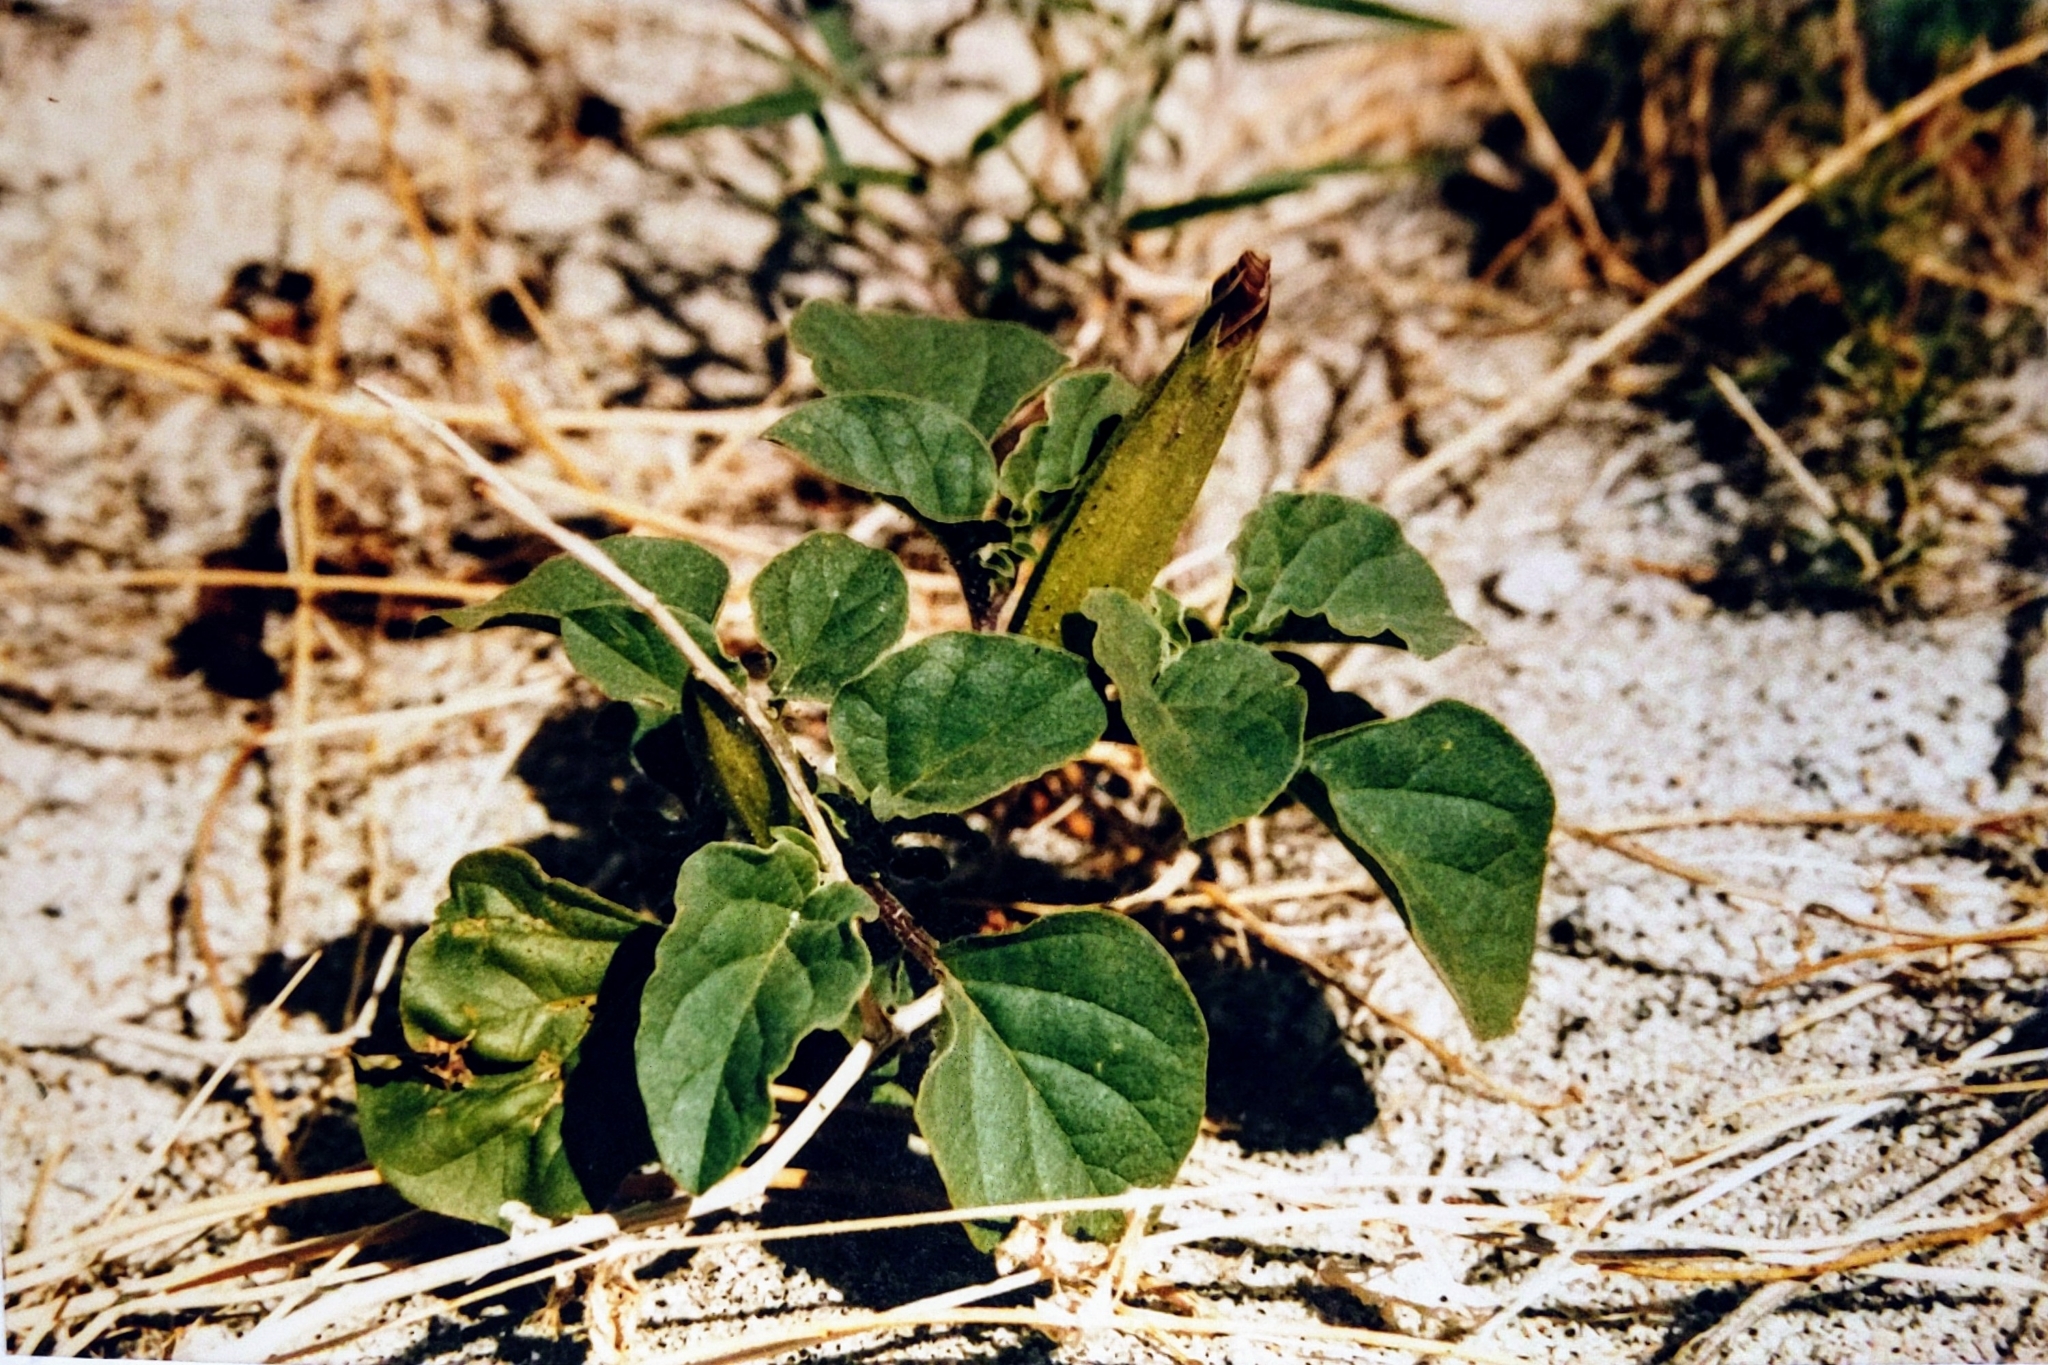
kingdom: Plantae
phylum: Tracheophyta
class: Magnoliopsida
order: Solanales
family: Solanaceae
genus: Datura
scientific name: Datura discolor
